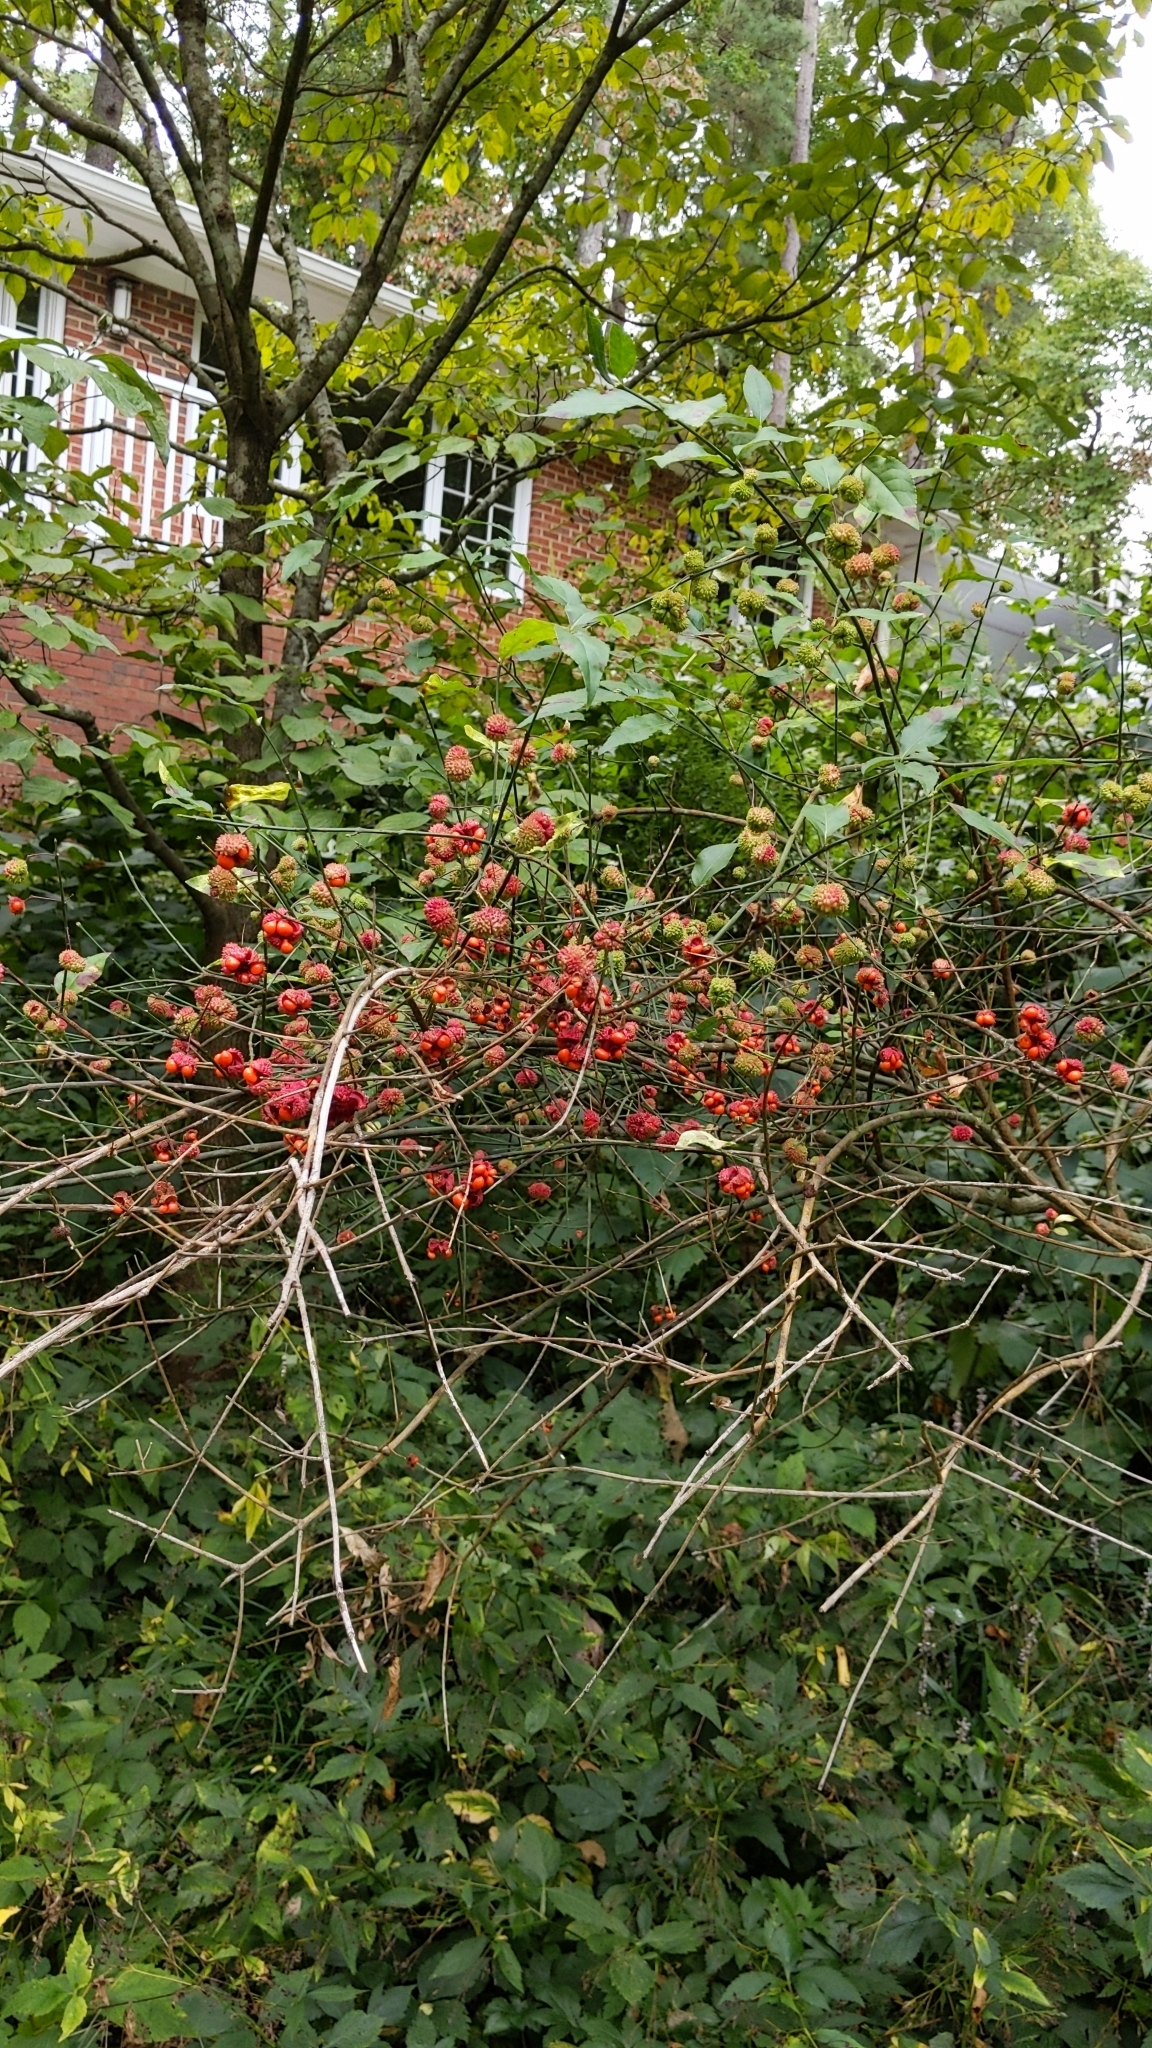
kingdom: Plantae
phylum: Tracheophyta
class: Magnoliopsida
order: Celastrales
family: Celastraceae
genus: Euonymus
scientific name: Euonymus americanus
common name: Bursting-heart
